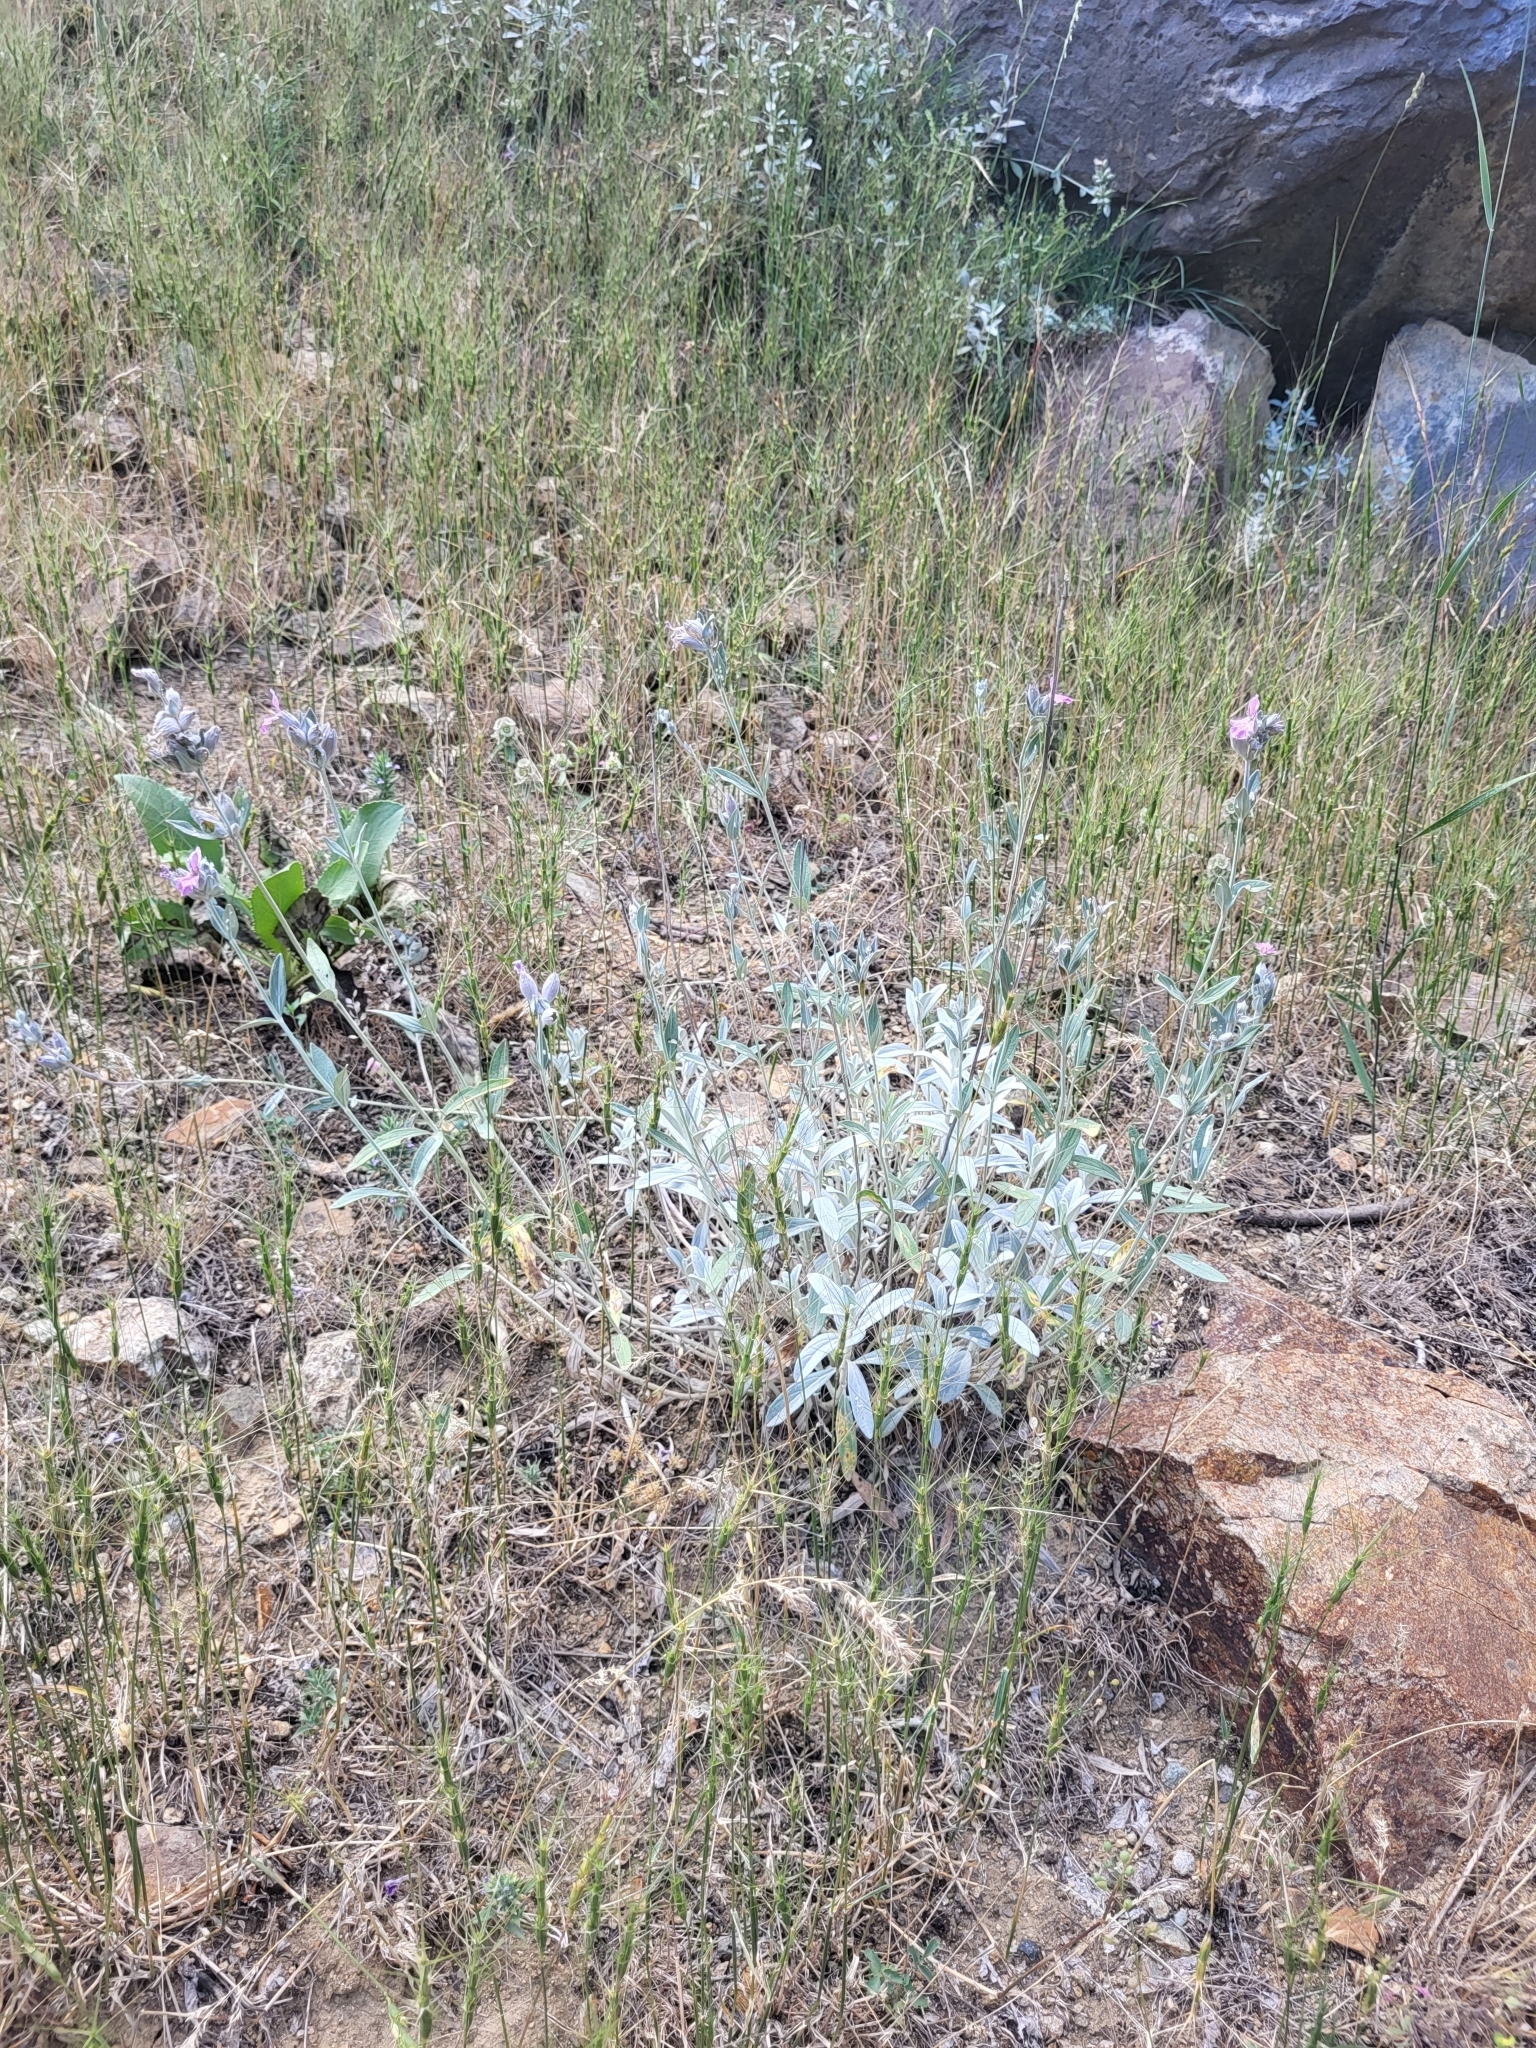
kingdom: Plantae
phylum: Tracheophyta
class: Magnoliopsida
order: Lamiales
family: Lamiaceae
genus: Stachys
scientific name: Stachys inflata
